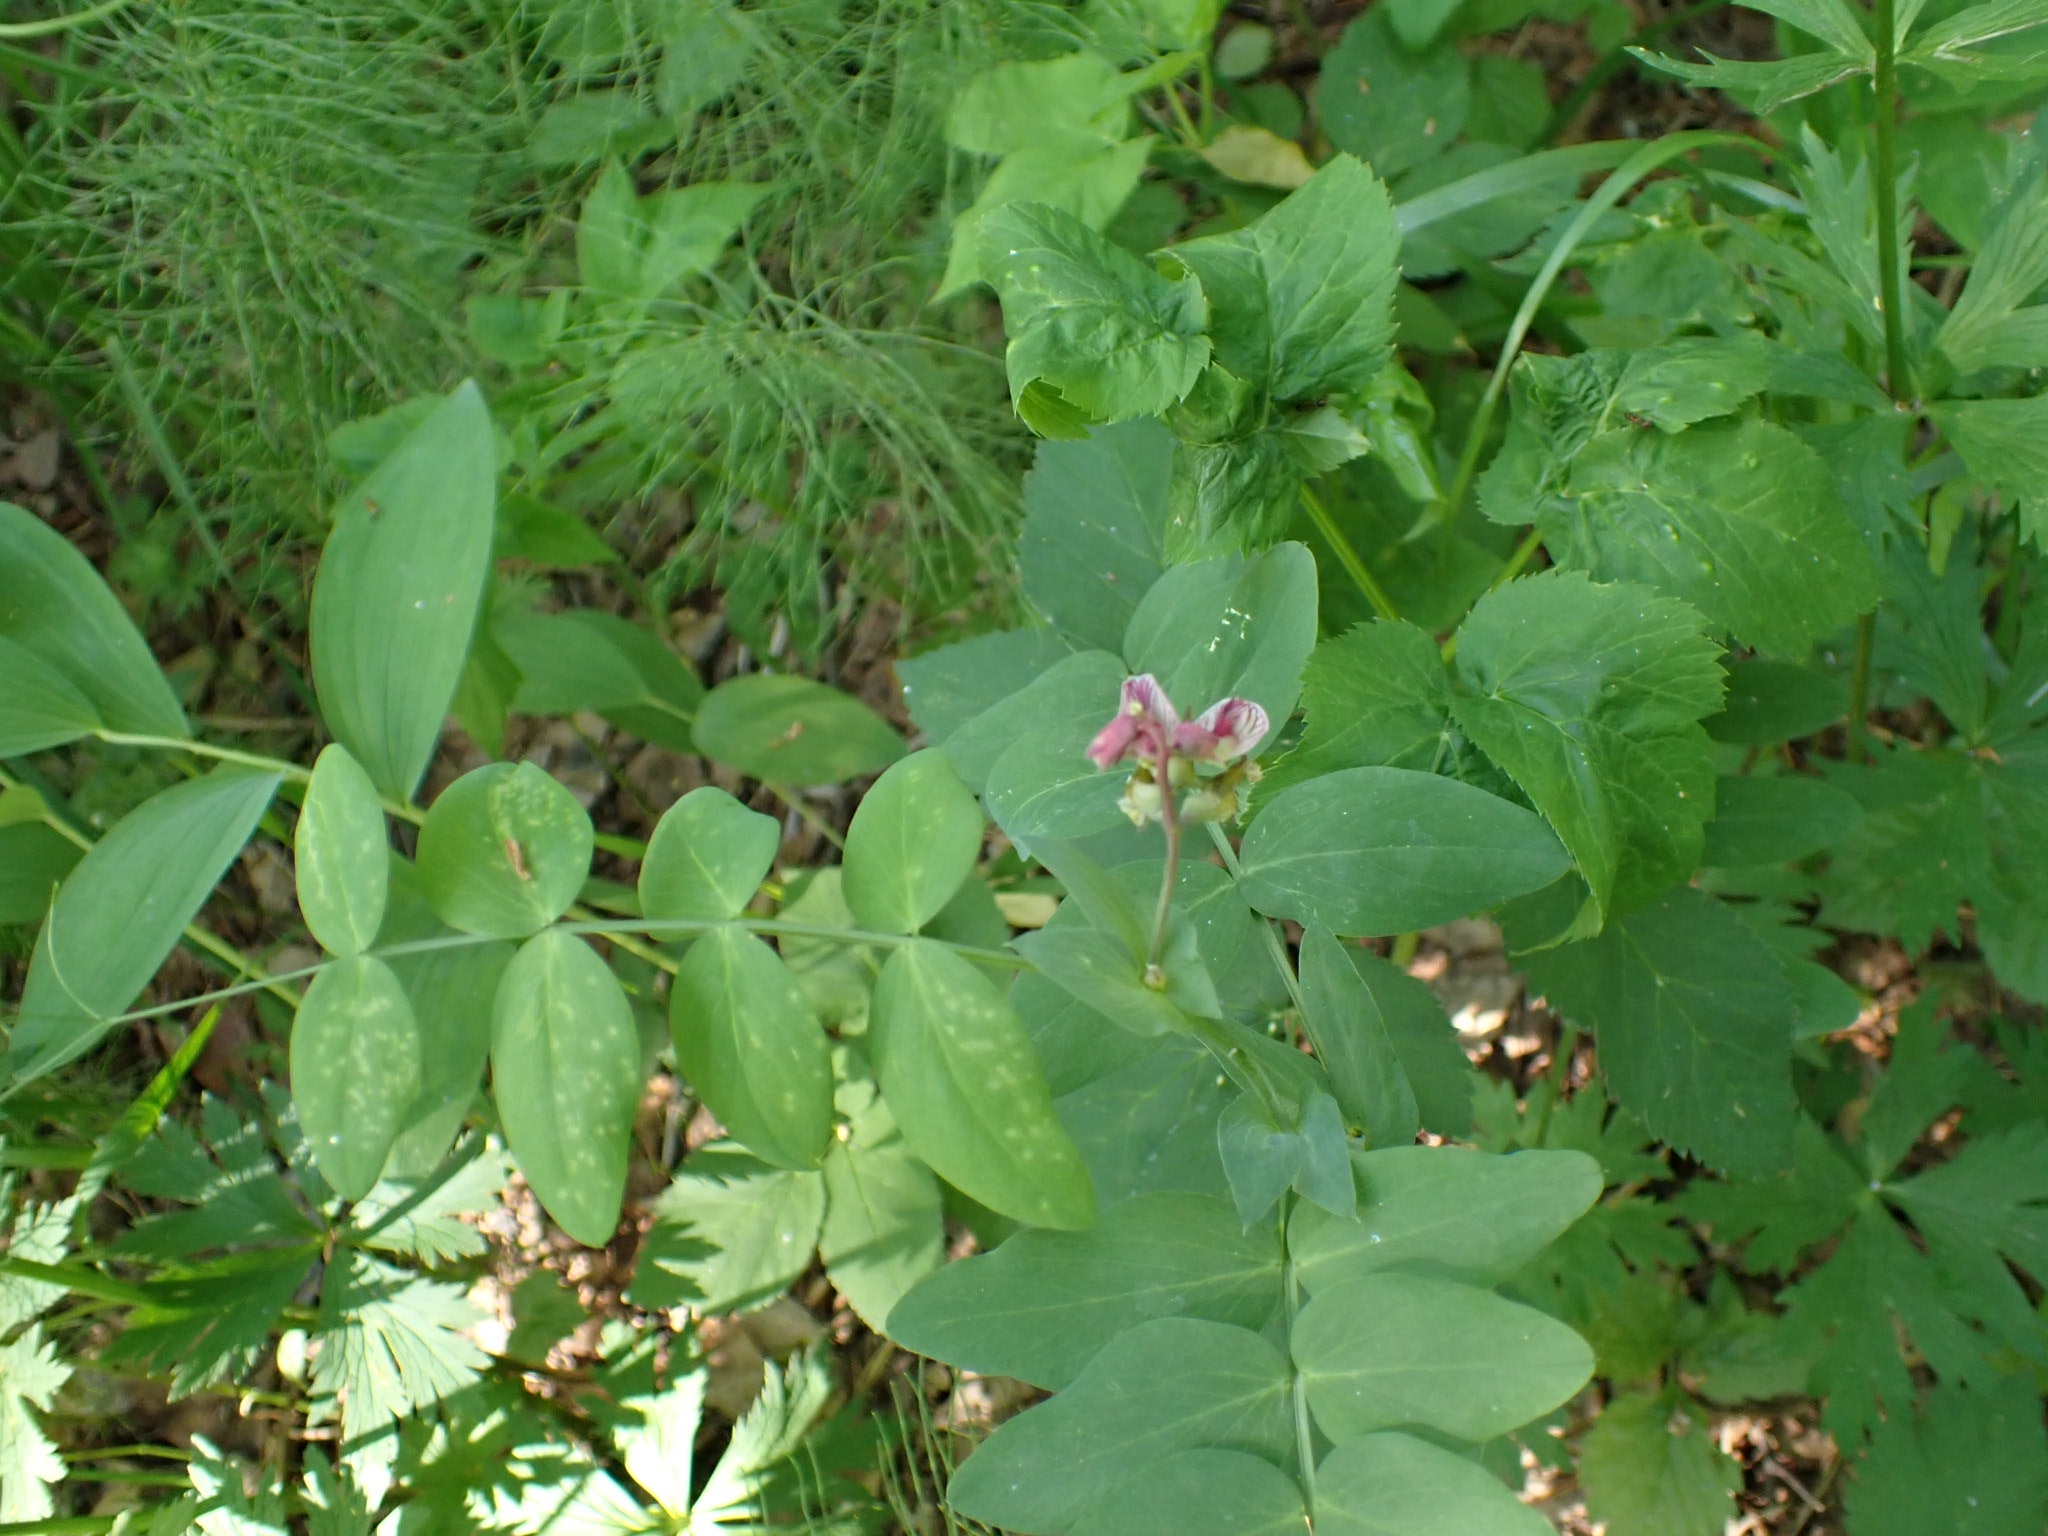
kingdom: Plantae
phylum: Tracheophyta
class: Magnoliopsida
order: Fabales
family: Fabaceae
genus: Lathyrus
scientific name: Lathyrus pisiformis
